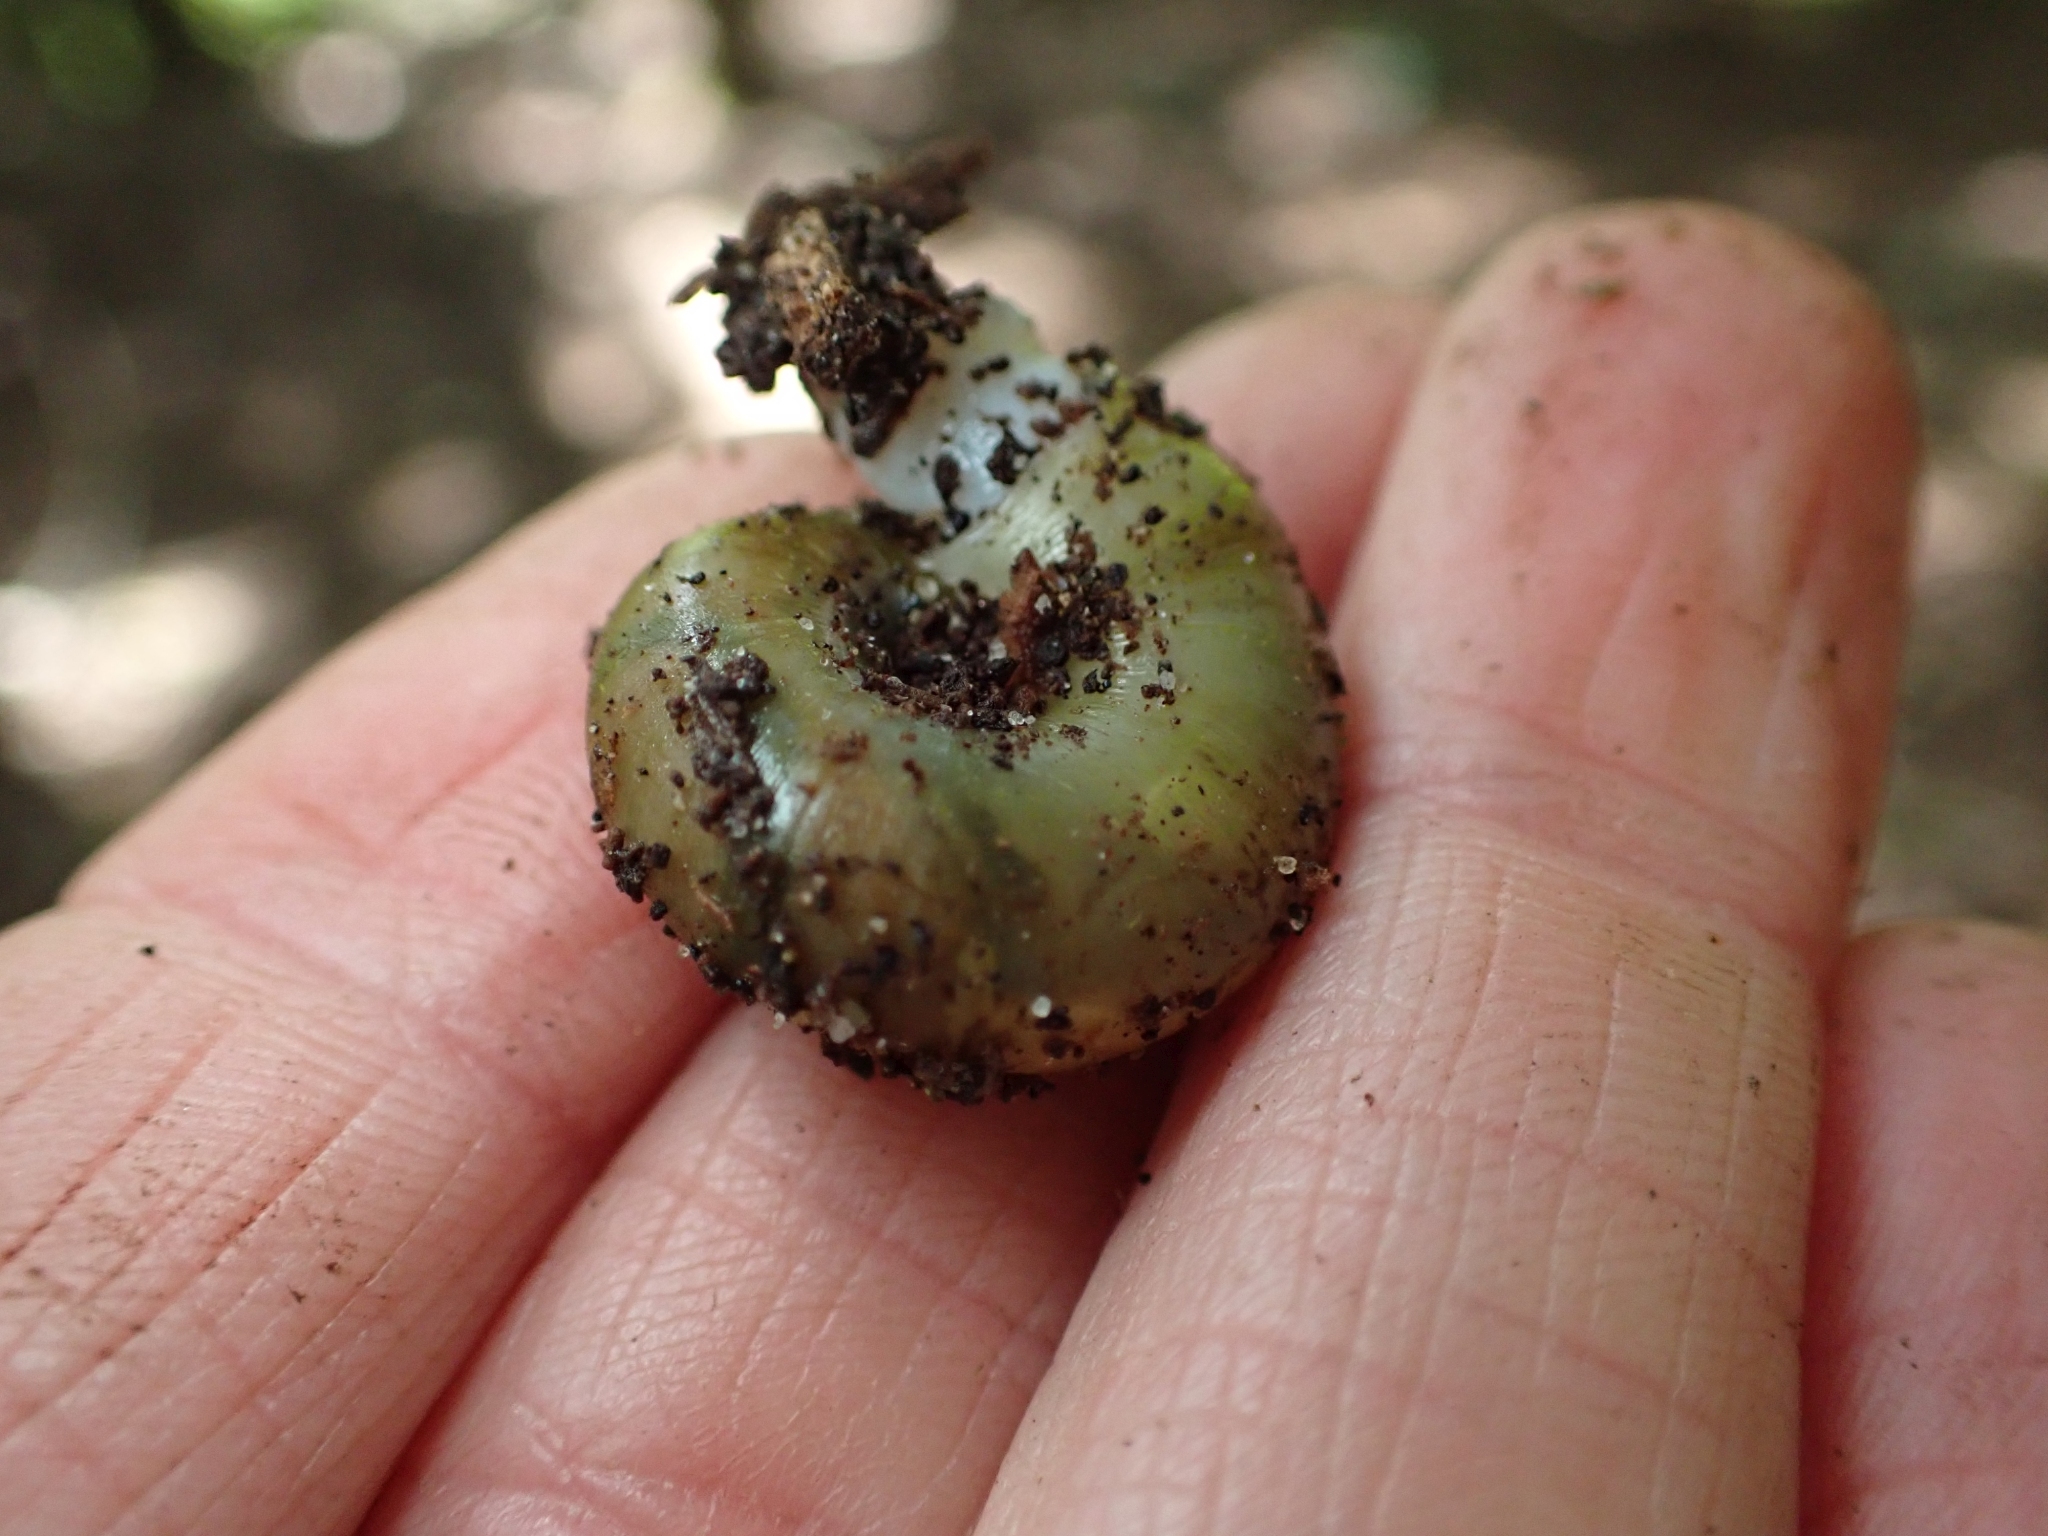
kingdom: Animalia
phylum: Mollusca
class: Gastropoda
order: Stylommatophora
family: Haplotrematidae
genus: Haplotrema
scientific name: Haplotrema vancouverense
